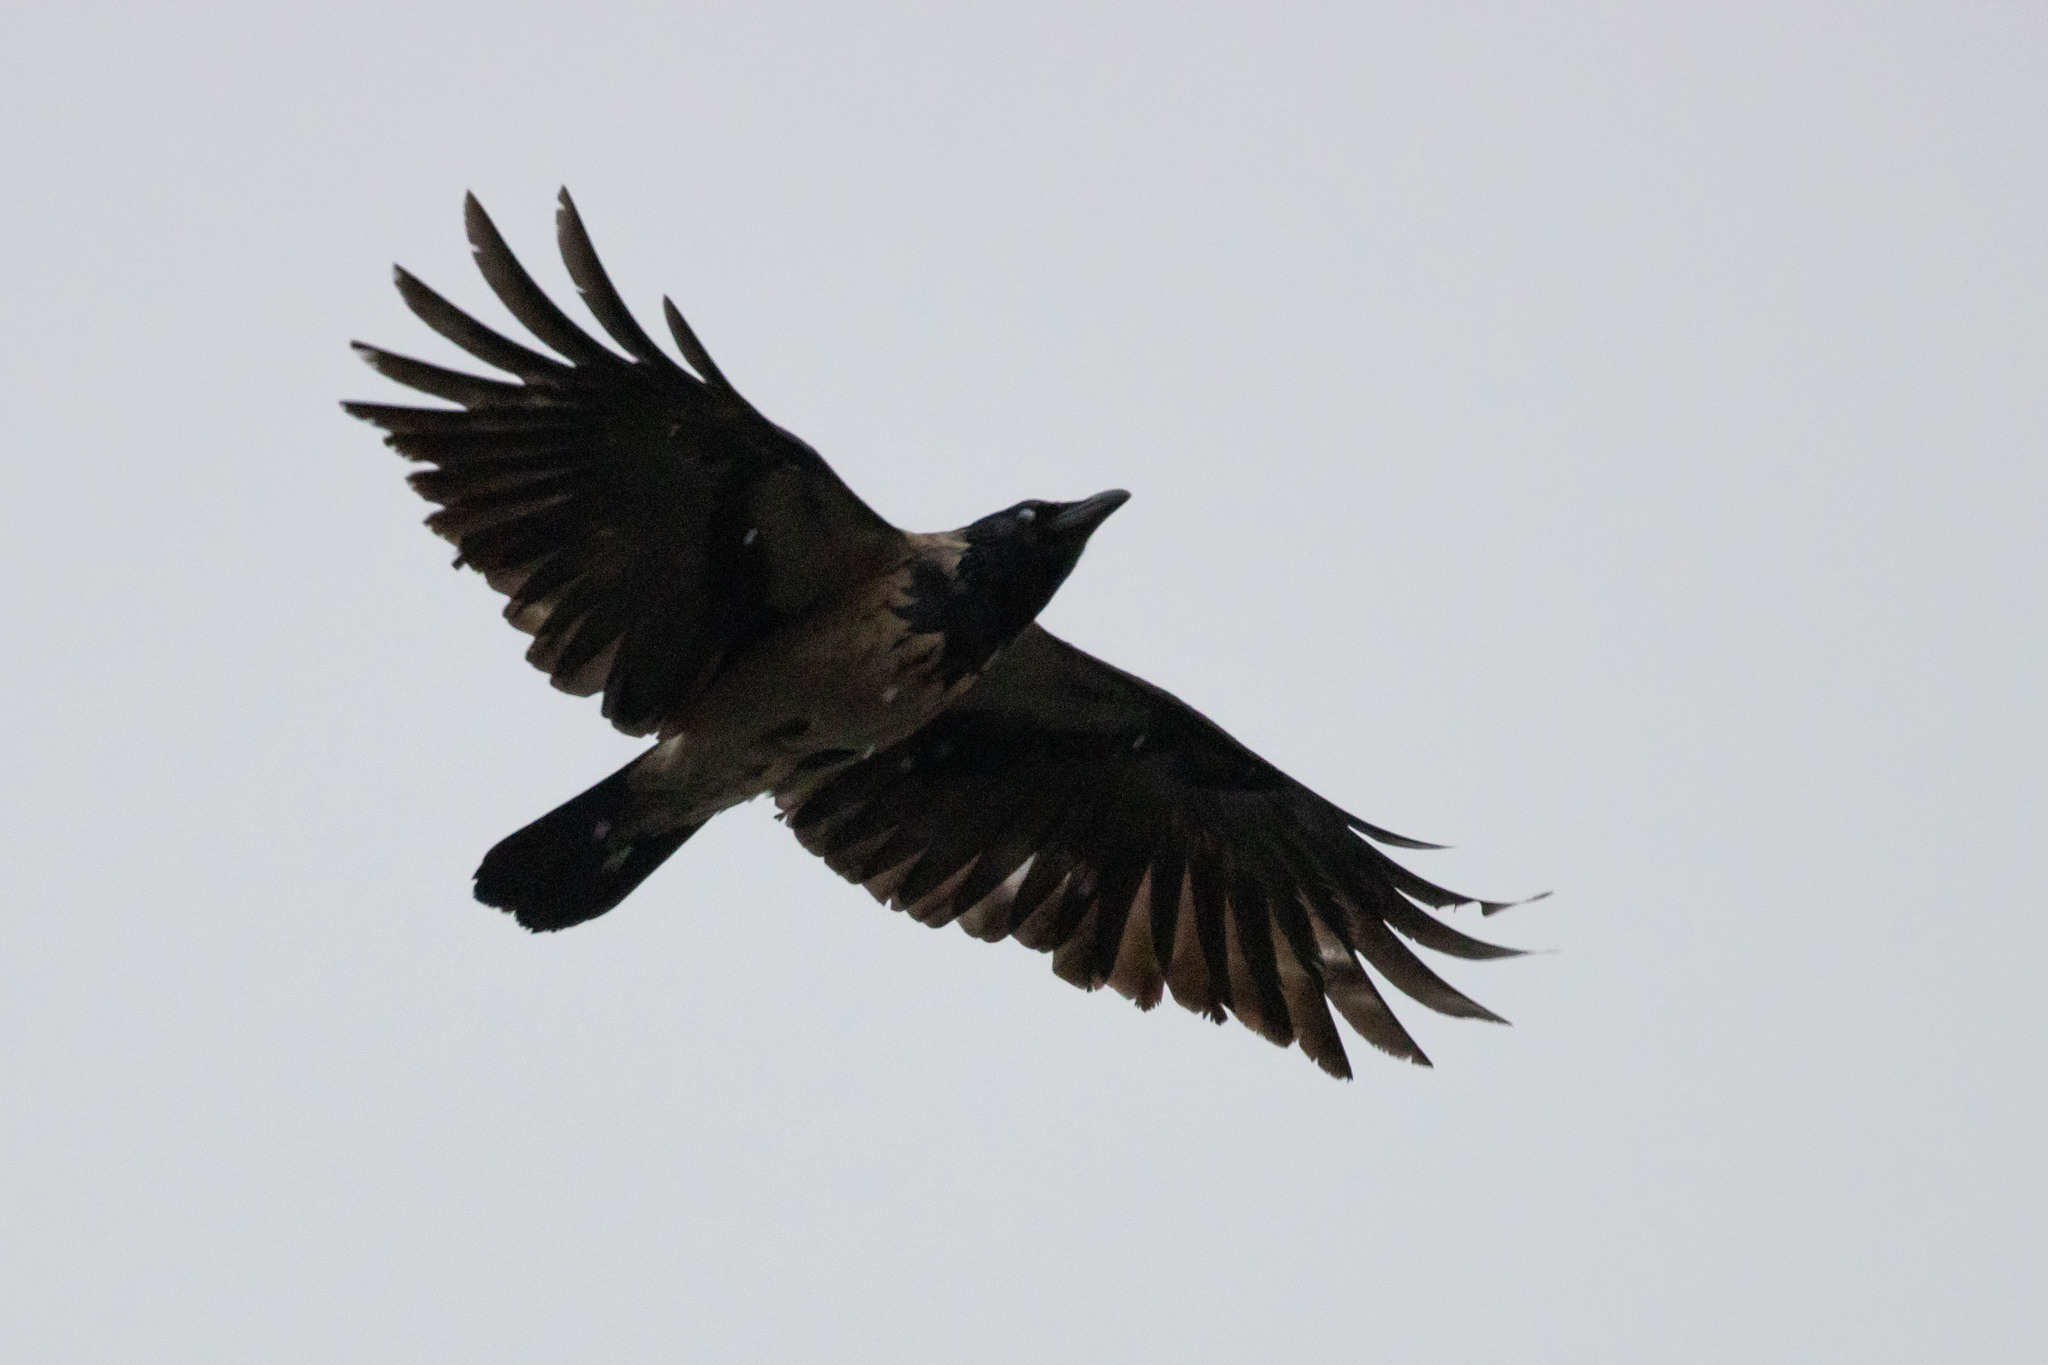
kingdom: Animalia
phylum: Chordata
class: Aves
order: Passeriformes
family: Corvidae
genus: Corvus
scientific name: Corvus cornix
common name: Hooded crow
